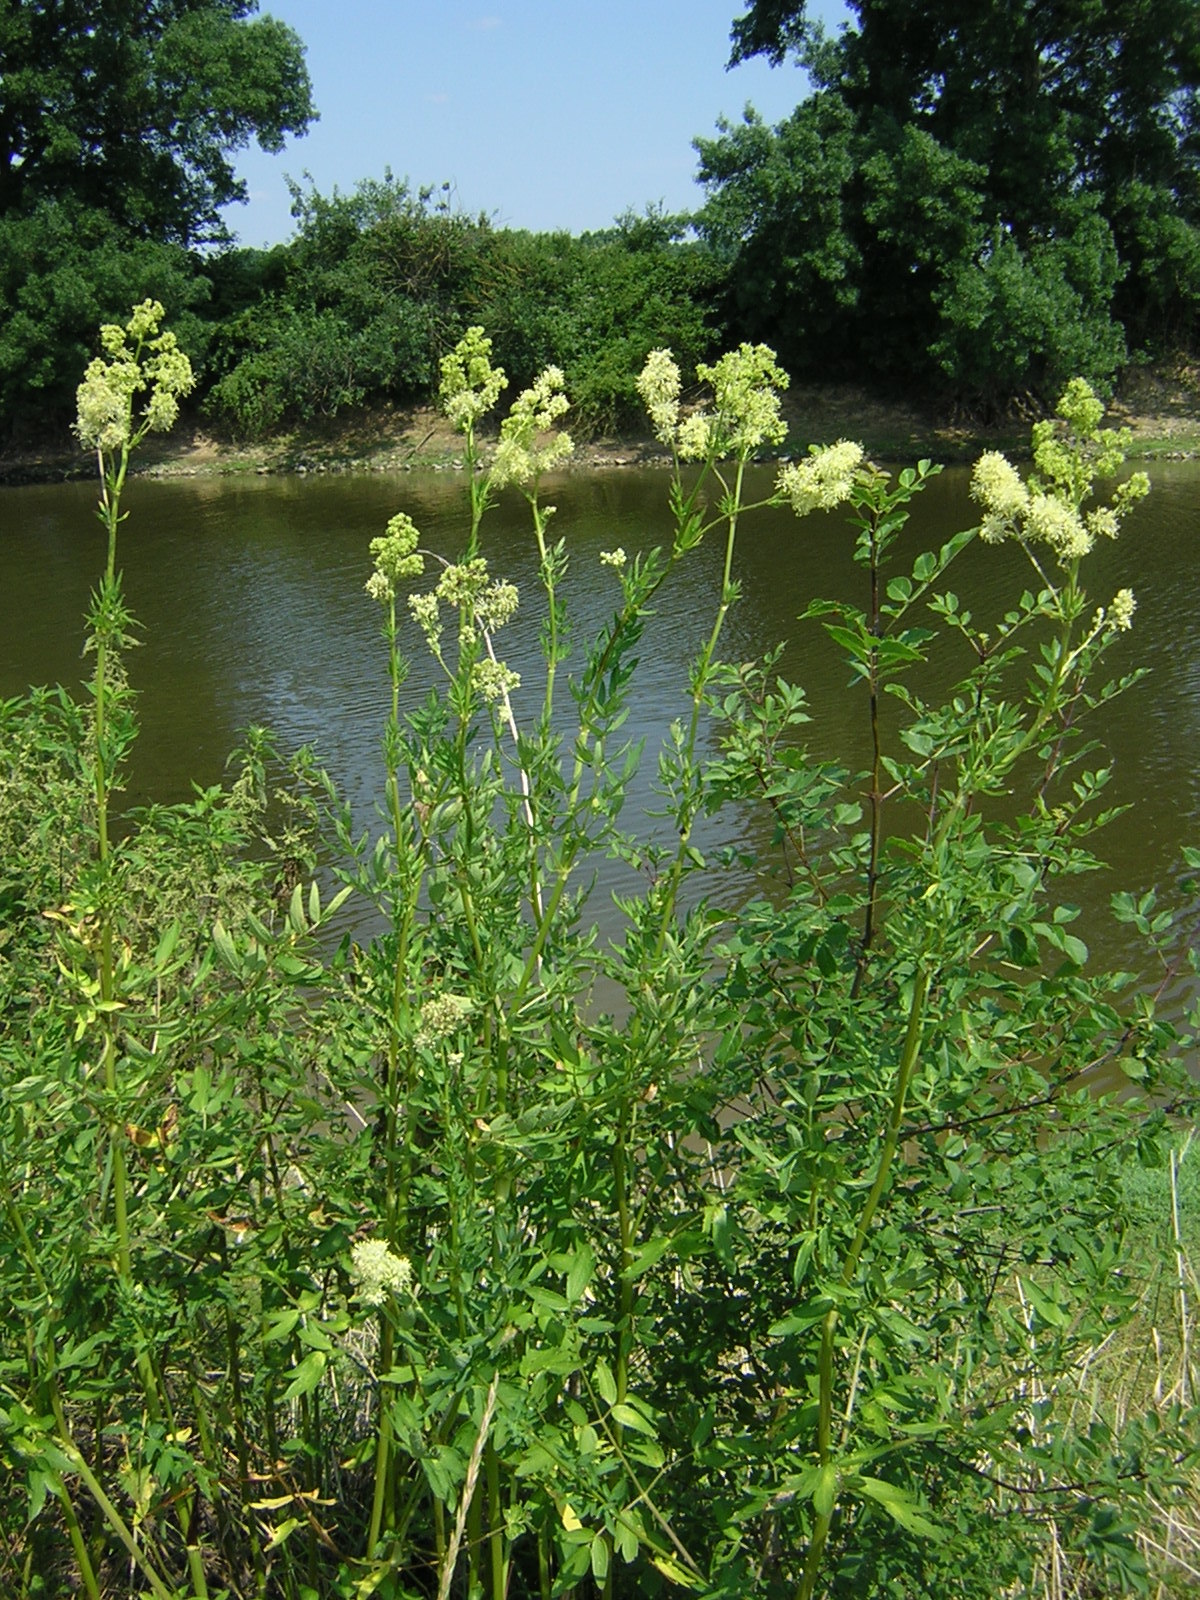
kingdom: Plantae
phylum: Tracheophyta
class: Magnoliopsida
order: Ranunculales
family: Ranunculaceae
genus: Thalictrum
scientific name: Thalictrum flavum
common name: Common meadow-rue
